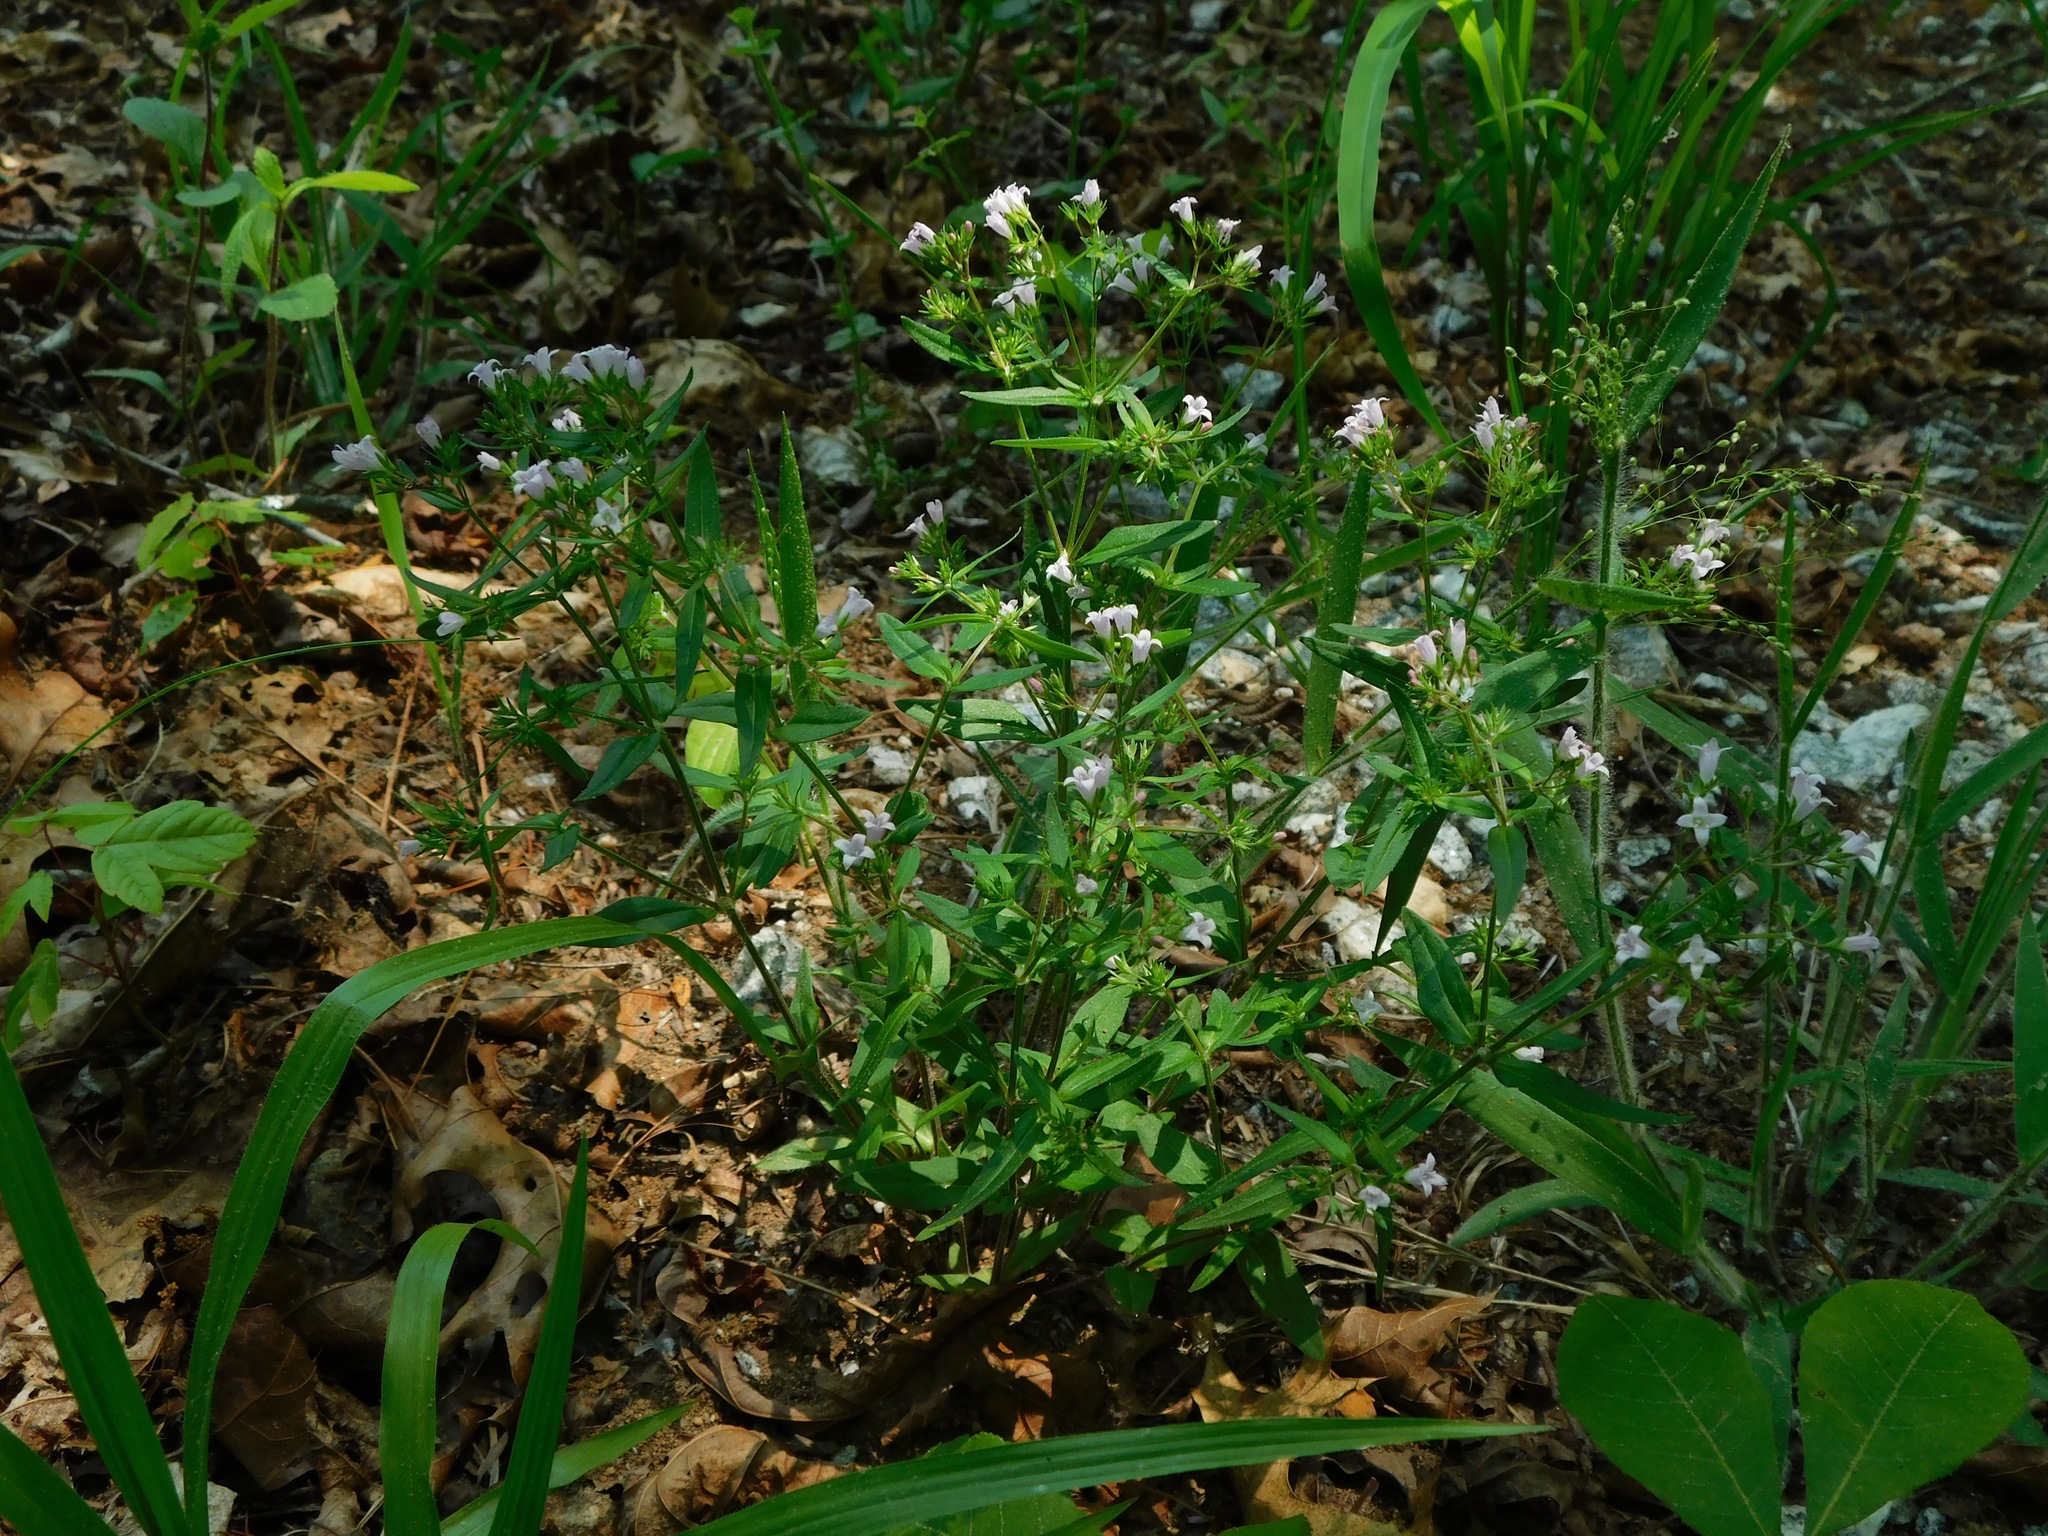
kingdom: Plantae
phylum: Tracheophyta
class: Magnoliopsida
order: Gentianales
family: Rubiaceae
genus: Houstonia
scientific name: Houstonia purpurea
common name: Summer bluet
